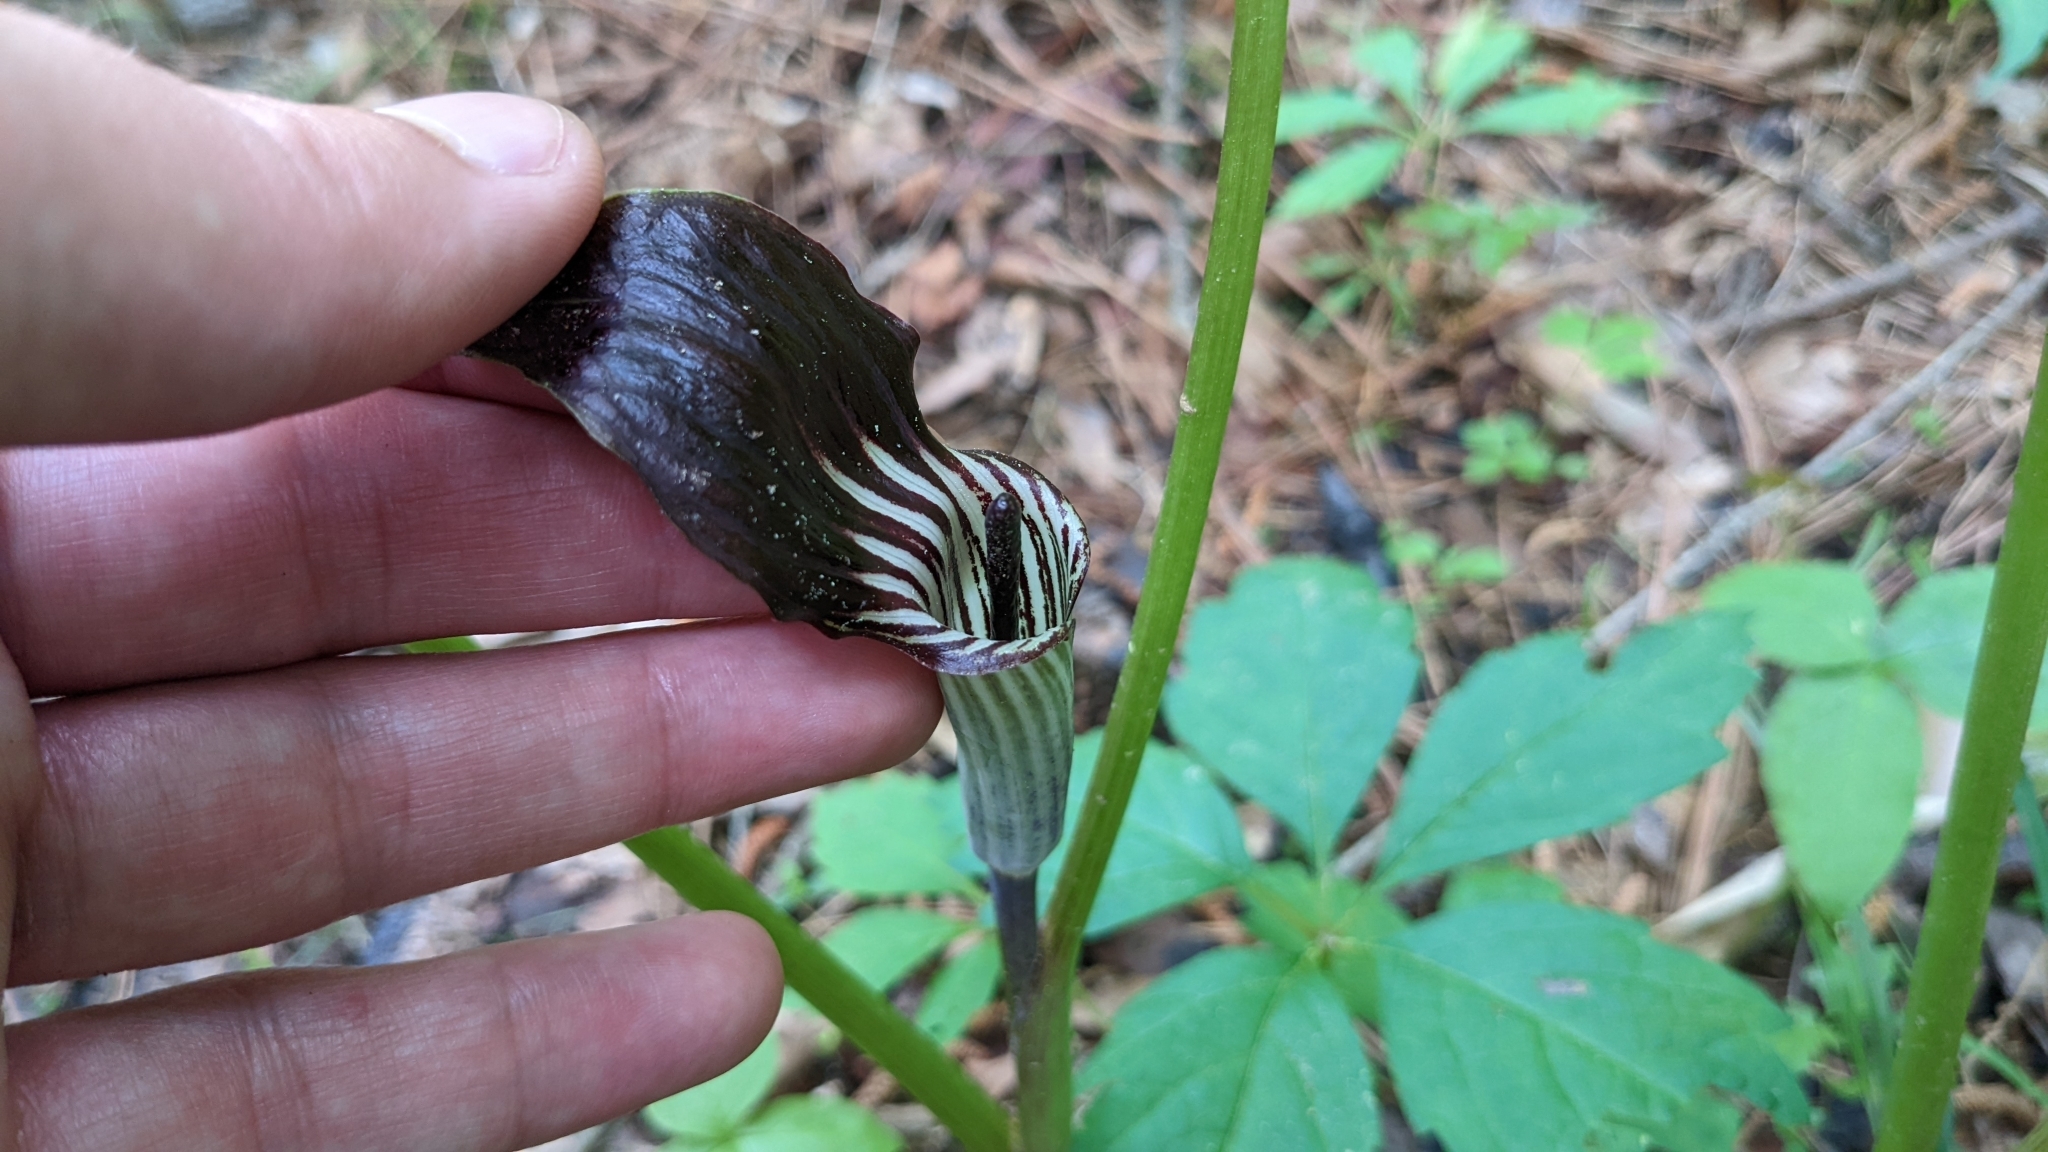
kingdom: Plantae
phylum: Tracheophyta
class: Liliopsida
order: Alismatales
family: Araceae
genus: Arisaema
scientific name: Arisaema triphyllum
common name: Jack-in-the-pulpit
